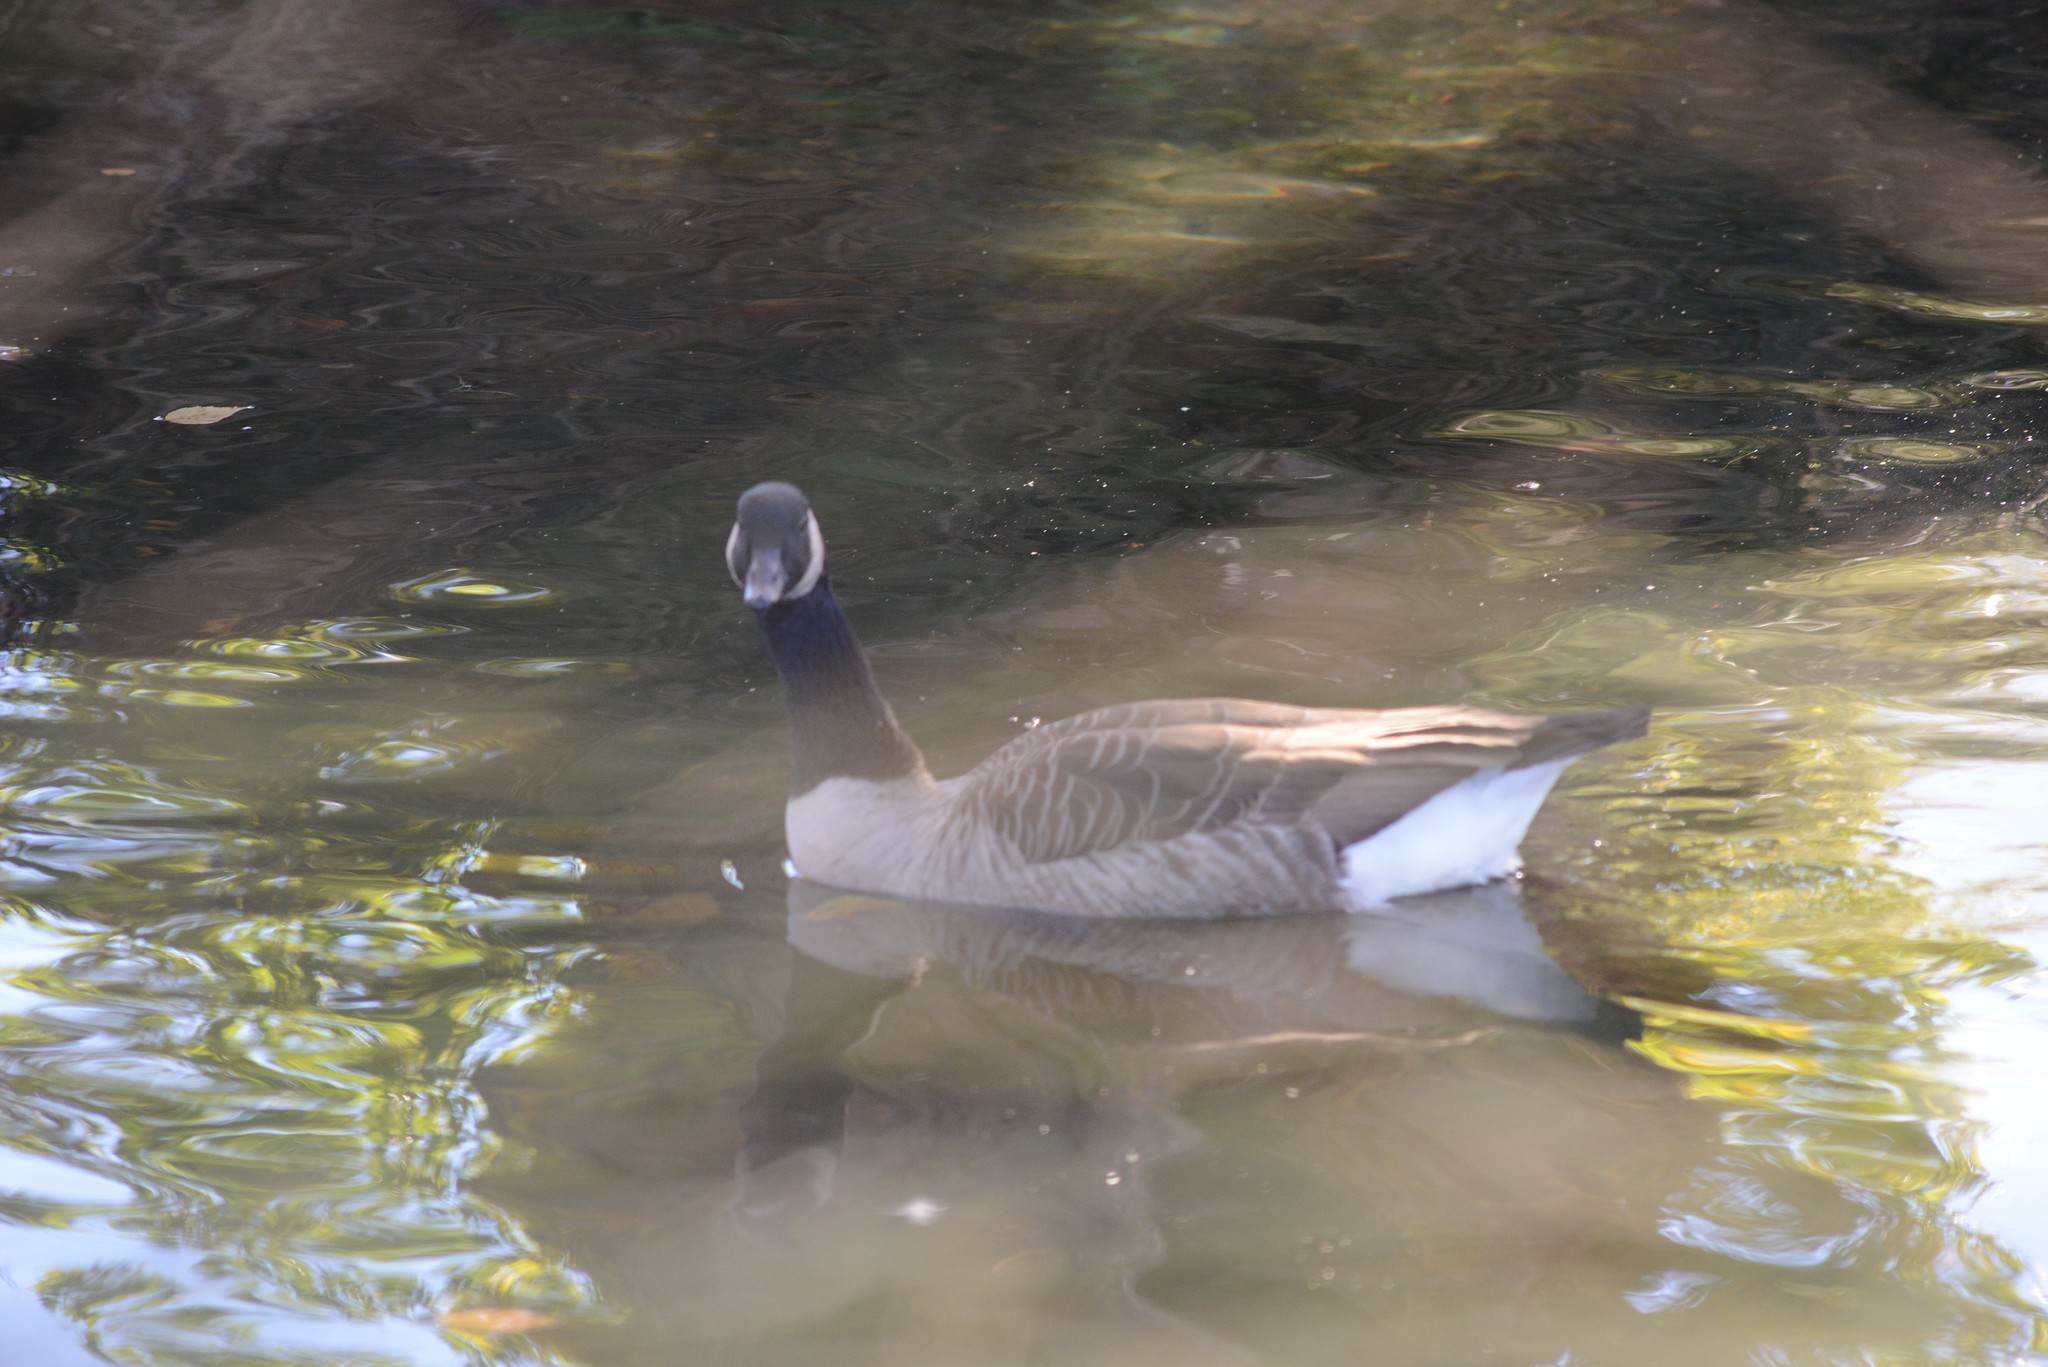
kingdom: Animalia
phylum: Chordata
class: Aves
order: Anseriformes
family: Anatidae
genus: Branta
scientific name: Branta canadensis
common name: Canada goose
